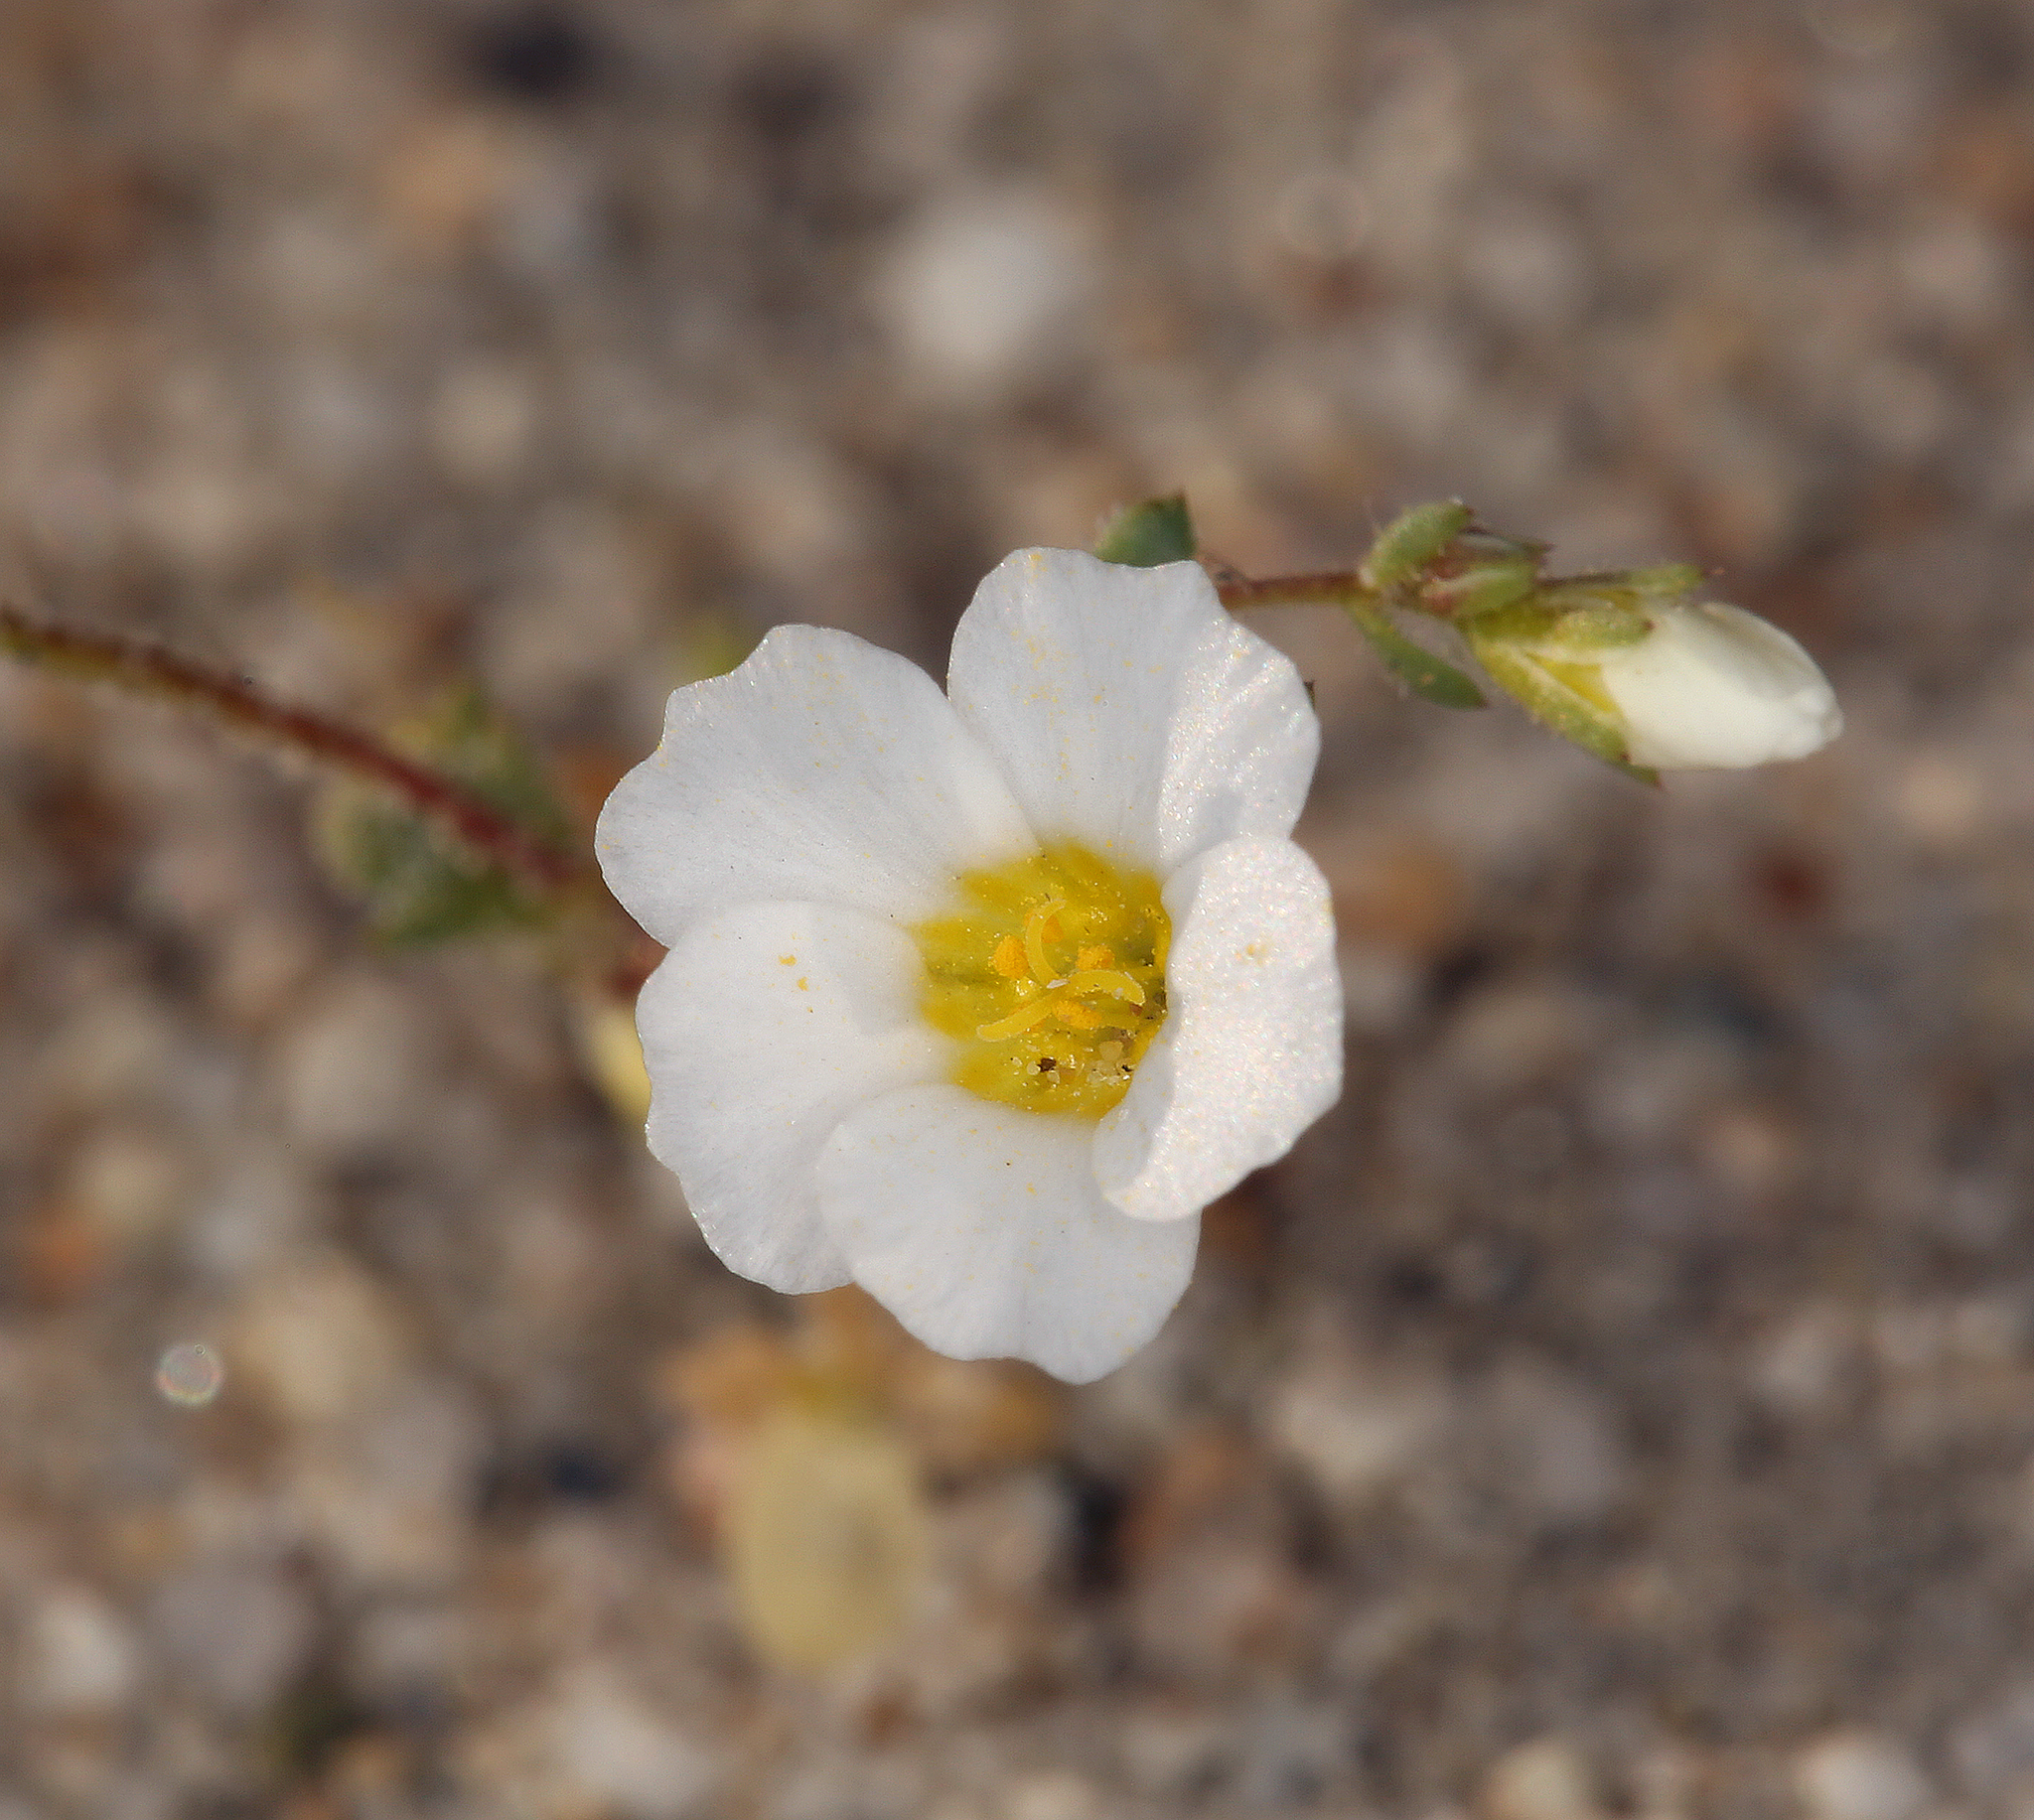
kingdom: Plantae
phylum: Tracheophyta
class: Magnoliopsida
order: Ericales
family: Polemoniaceae
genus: Linanthus
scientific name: Linanthus inyoensis
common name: Inyo gilia
